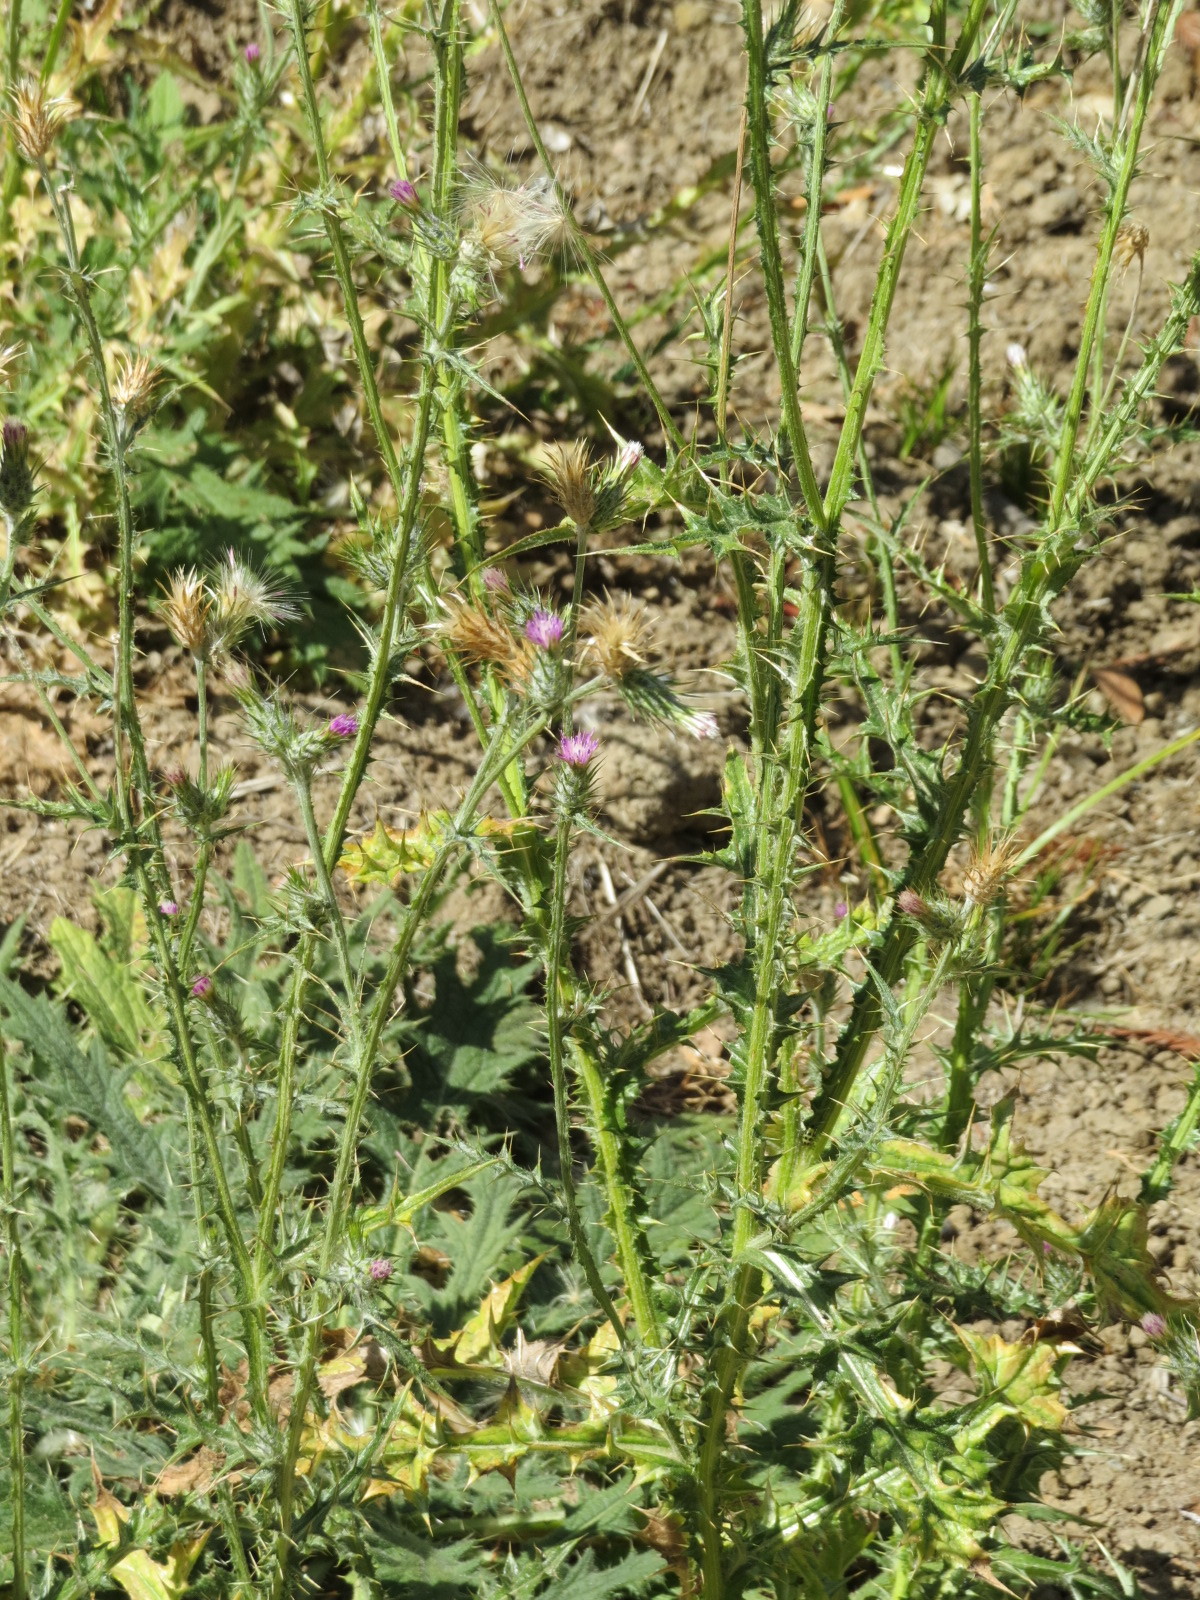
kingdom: Plantae
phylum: Tracheophyta
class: Magnoliopsida
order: Asterales
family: Asteraceae
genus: Carduus
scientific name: Carduus pycnocephalus
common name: Plymouth thistle
